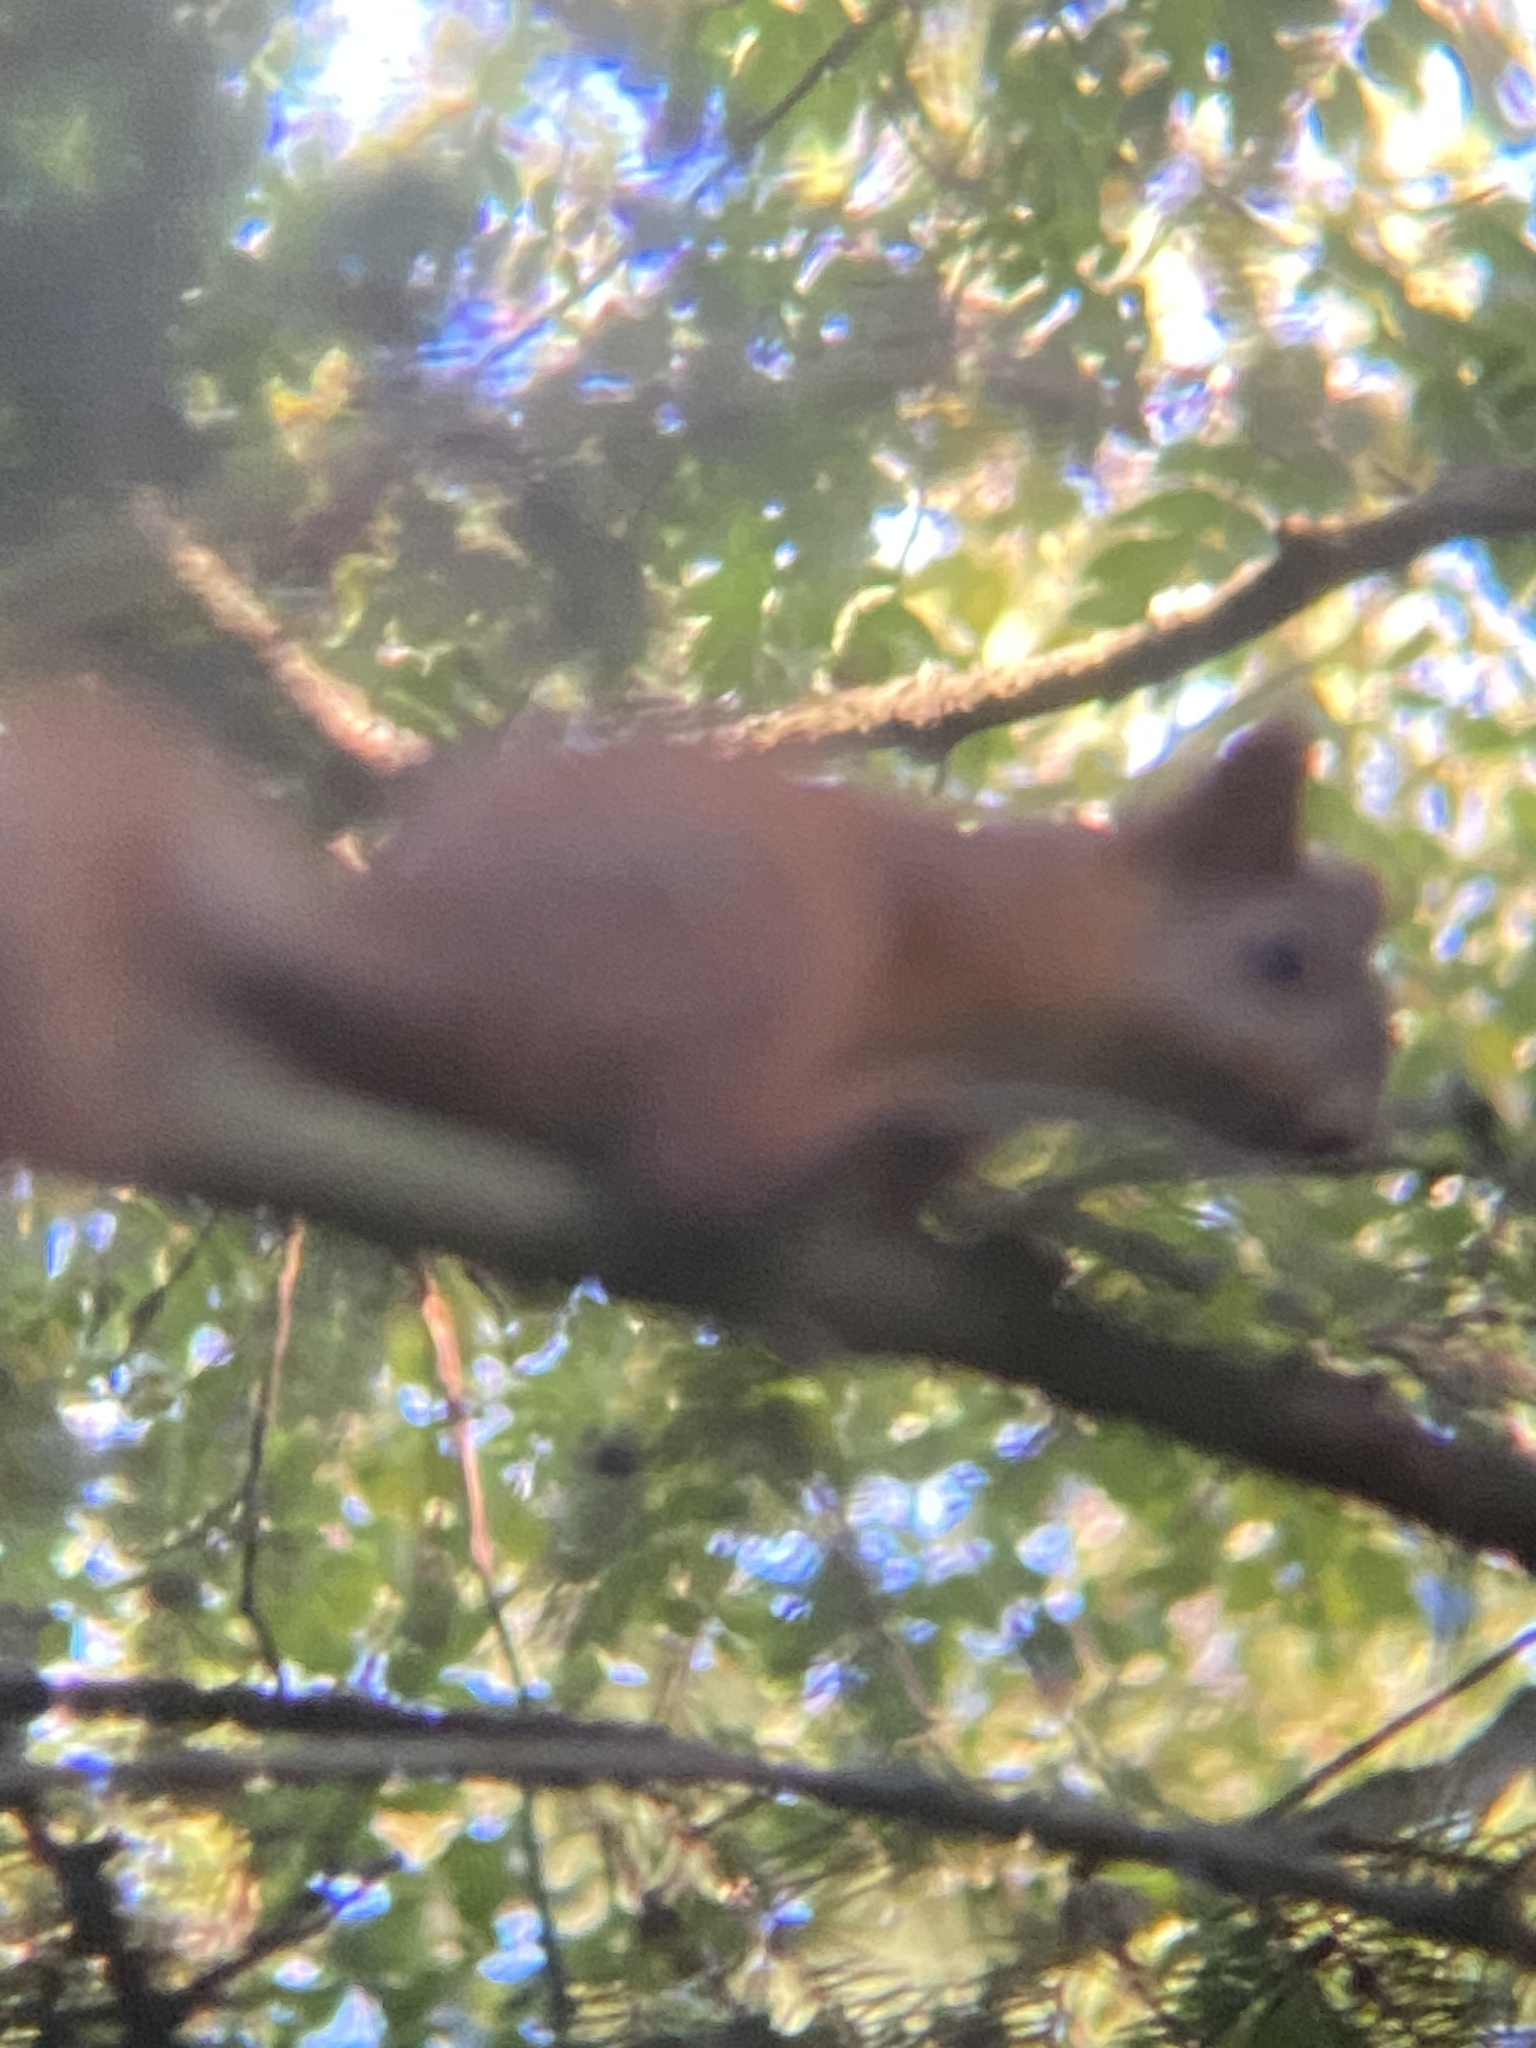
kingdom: Animalia
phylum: Chordata
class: Mammalia
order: Rodentia
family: Sciuridae
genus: Sciurus
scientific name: Sciurus vulgaris
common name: Eurasian red squirrel
